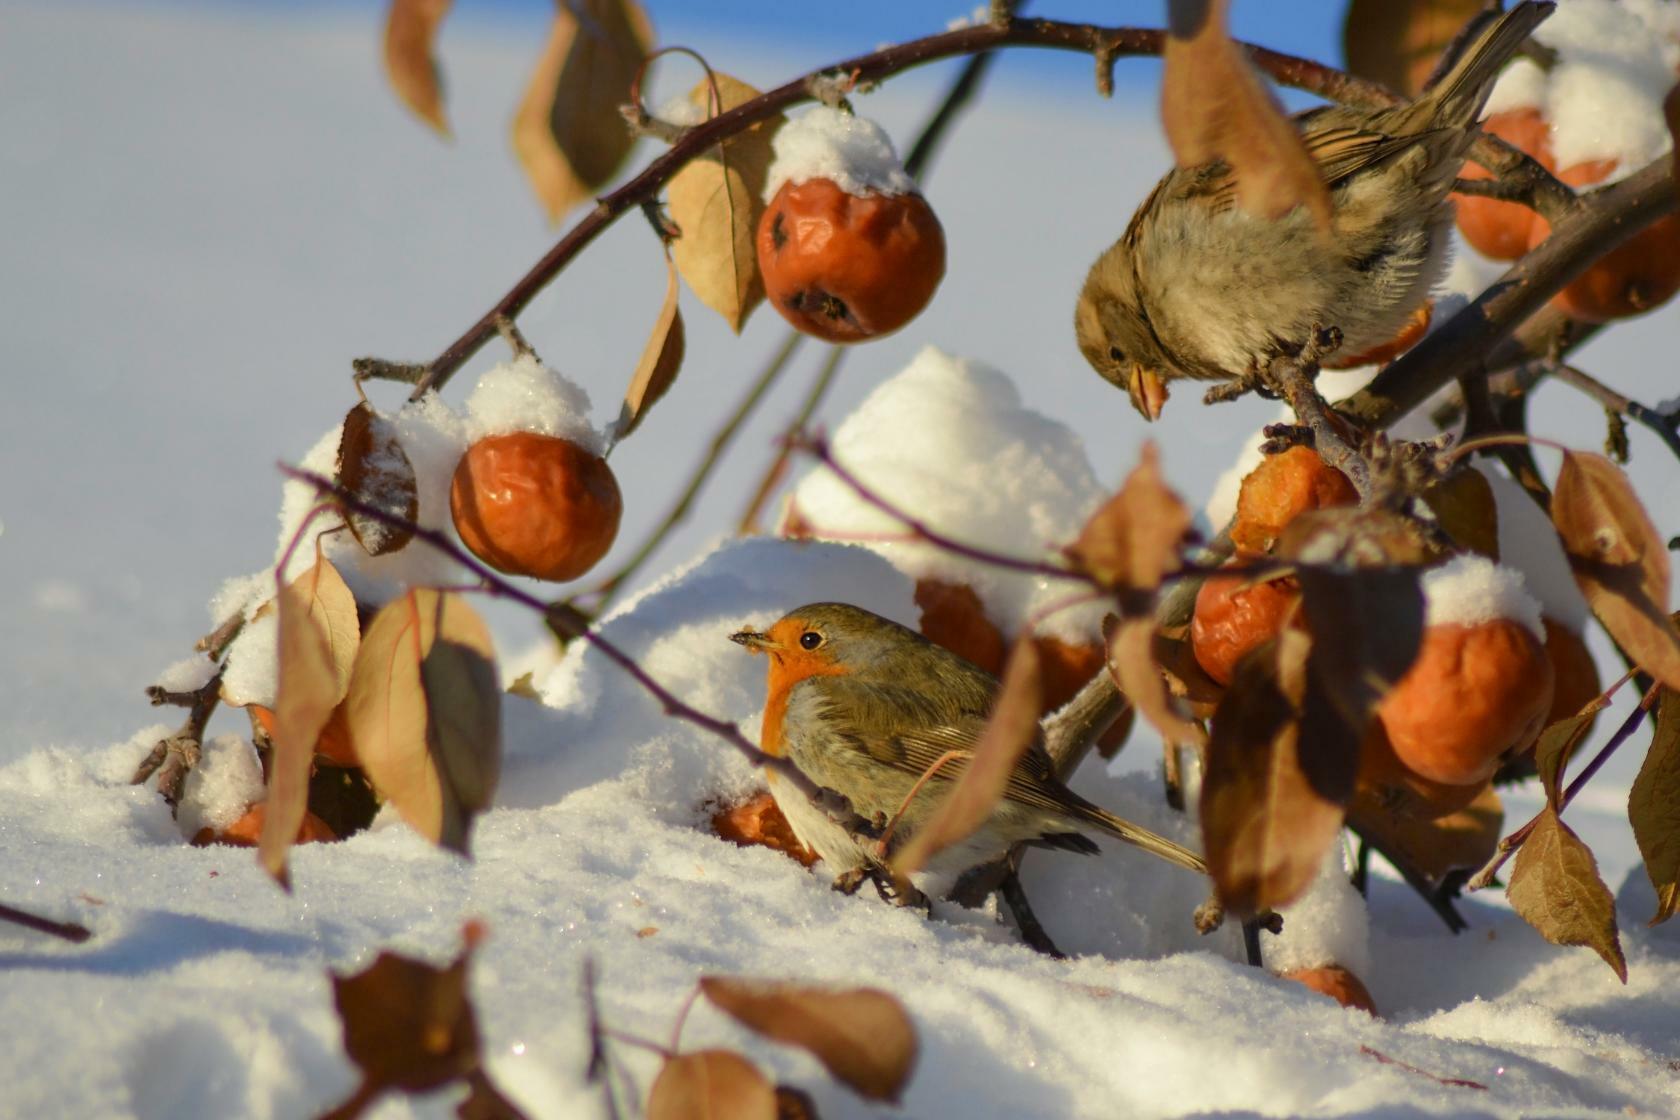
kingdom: Animalia
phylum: Chordata
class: Aves
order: Passeriformes
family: Muscicapidae
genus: Erithacus
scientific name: Erithacus rubecula
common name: European robin
